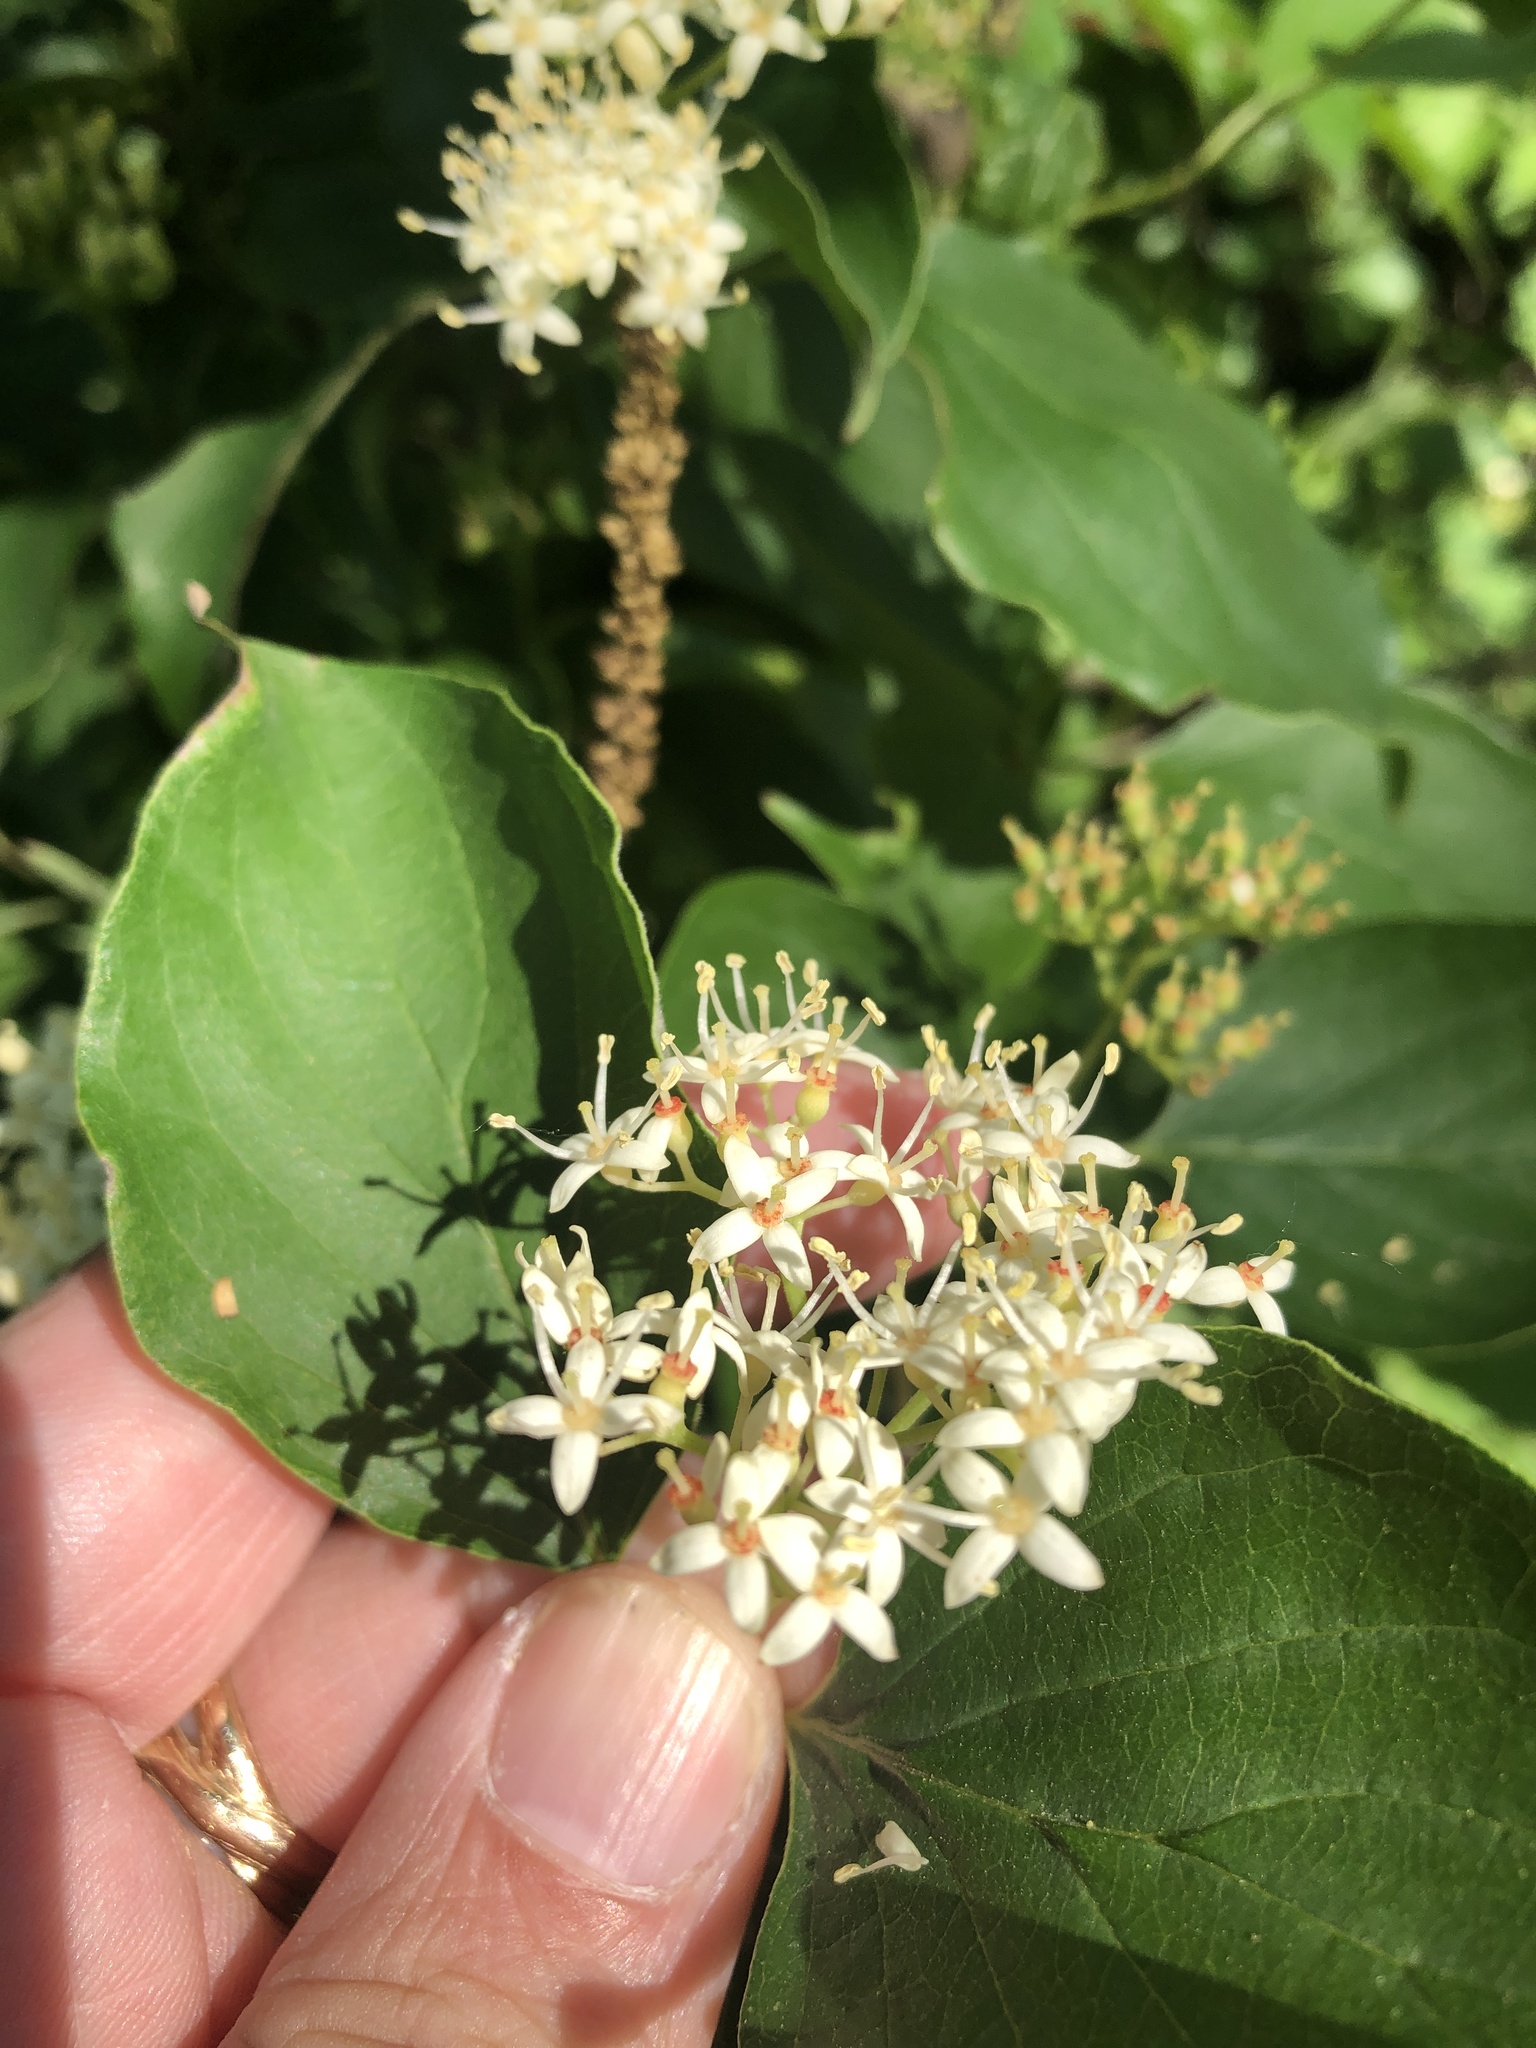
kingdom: Plantae
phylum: Tracheophyta
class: Magnoliopsida
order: Cornales
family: Cornaceae
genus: Cornus
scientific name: Cornus drummondii
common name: Rough-leaf dogwood
